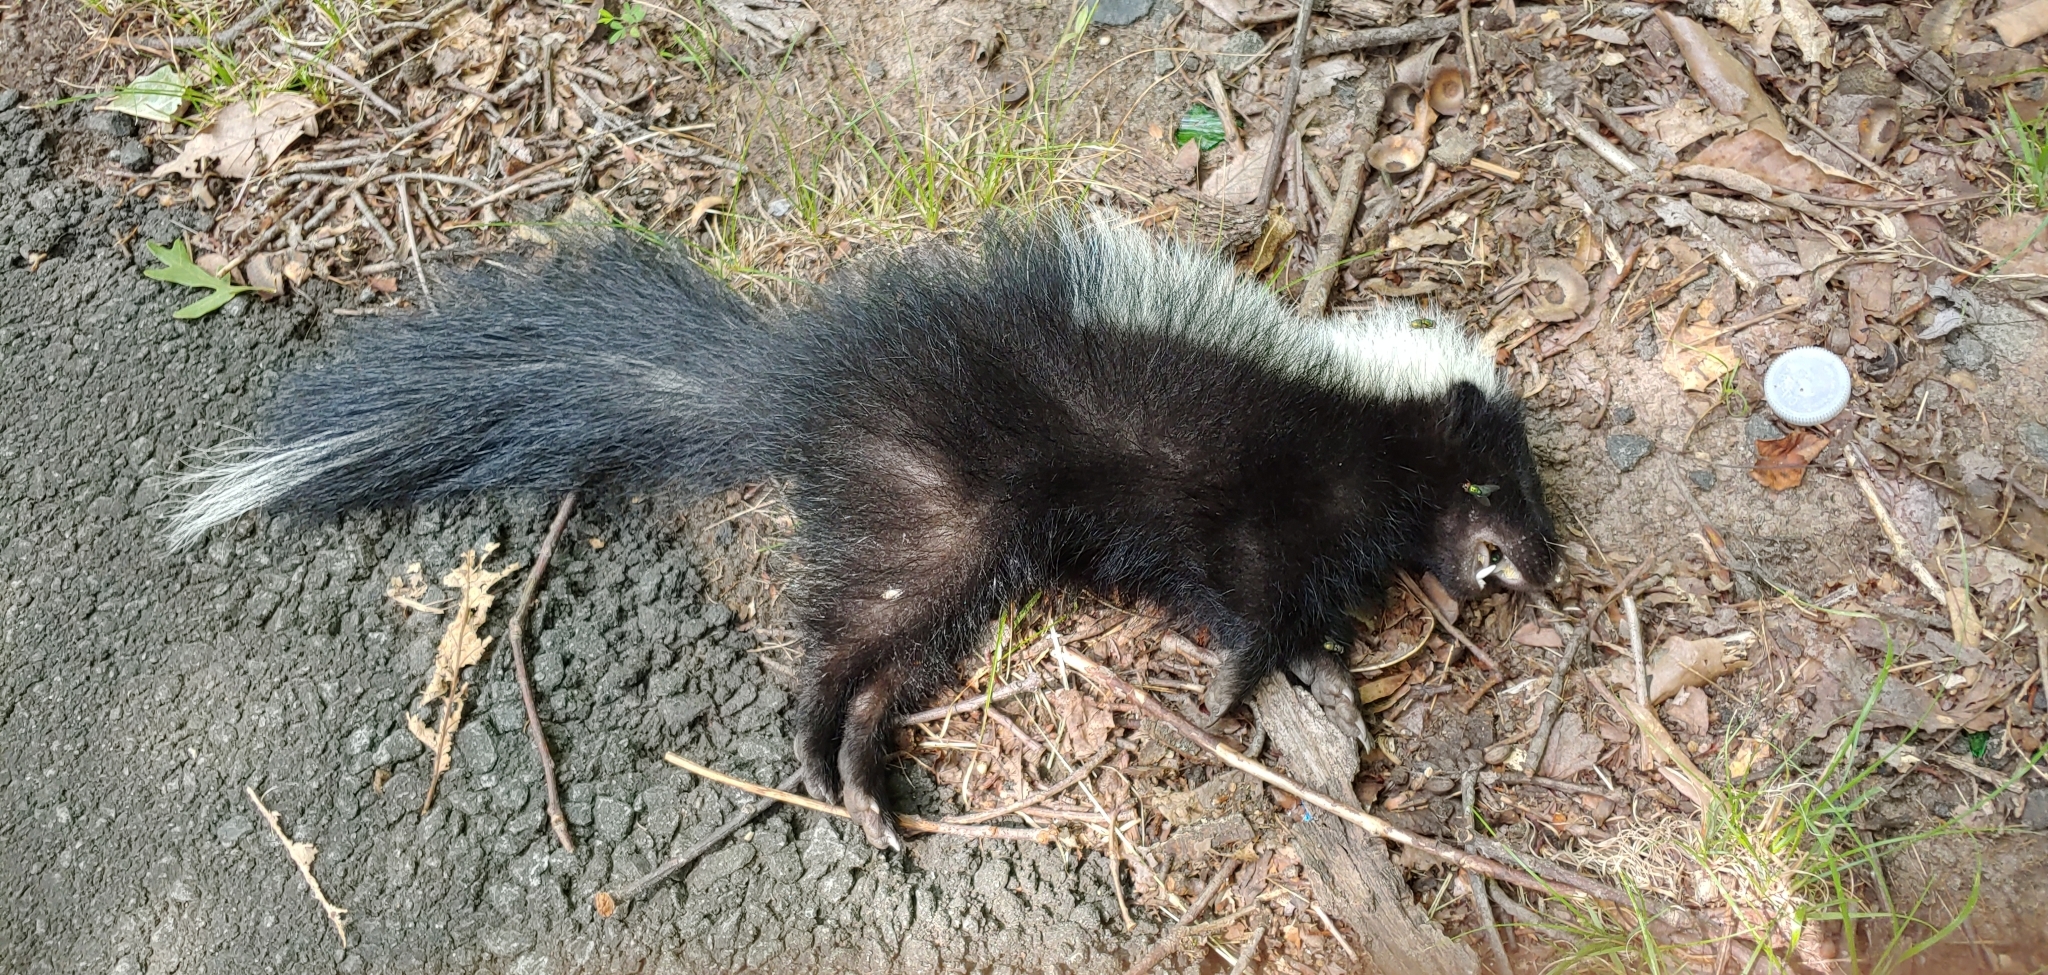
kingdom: Animalia
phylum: Chordata
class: Mammalia
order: Carnivora
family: Mephitidae
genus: Mephitis
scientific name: Mephitis mephitis
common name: Striped skunk
